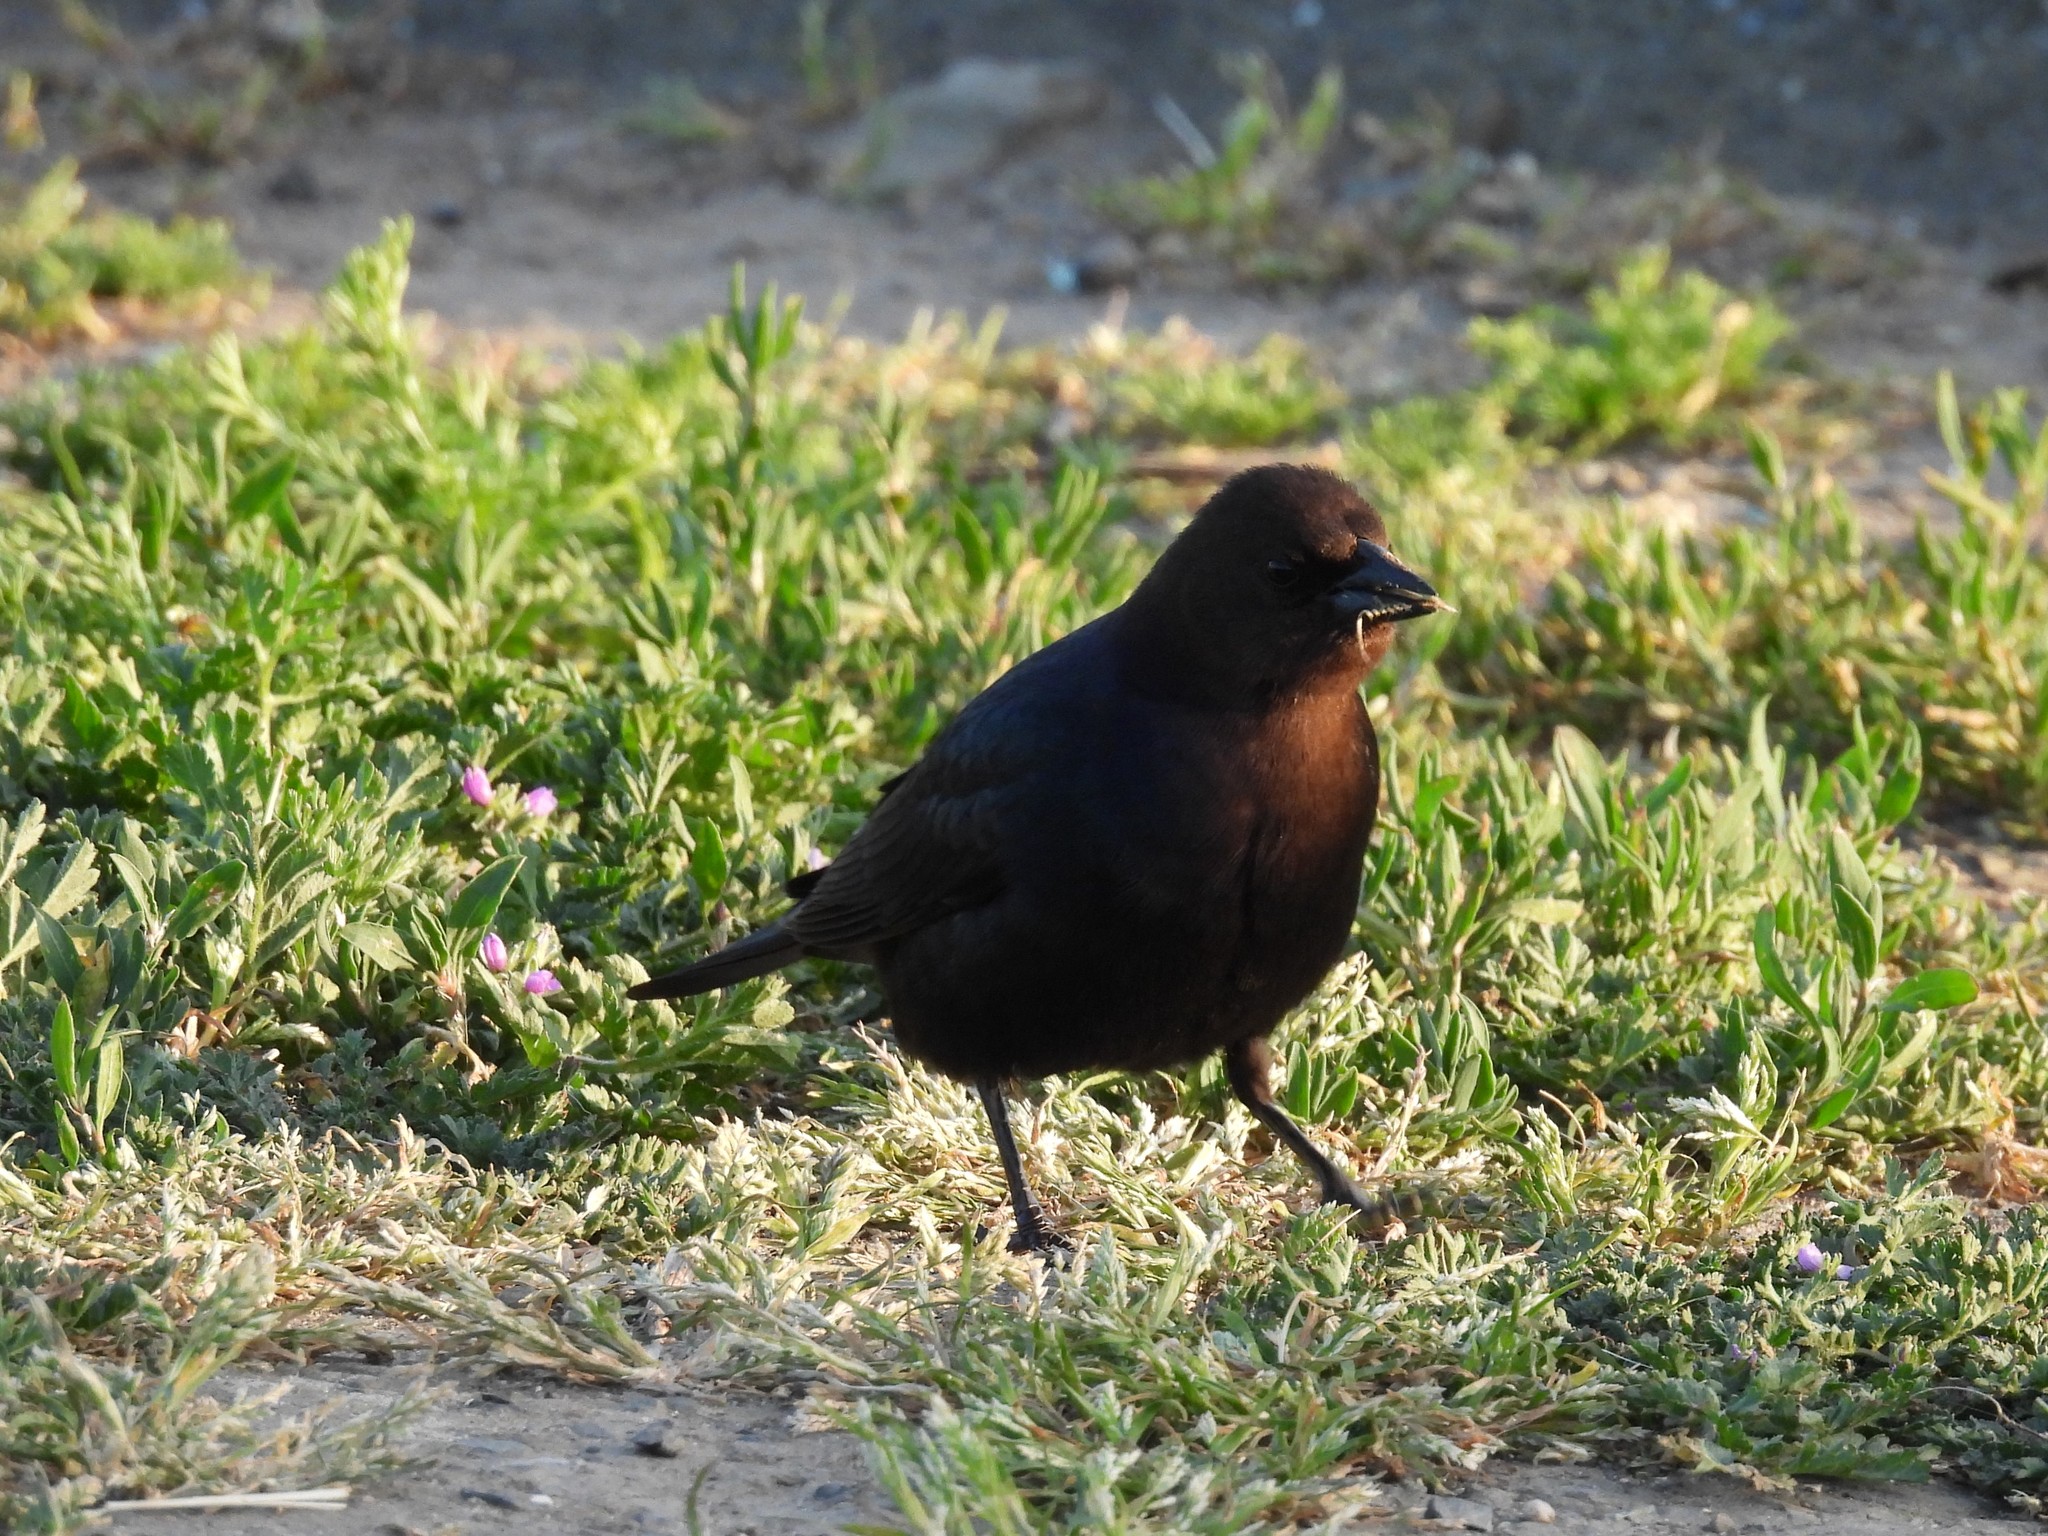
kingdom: Animalia
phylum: Chordata
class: Aves
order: Passeriformes
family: Icteridae
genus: Molothrus
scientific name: Molothrus ater
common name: Brown-headed cowbird
